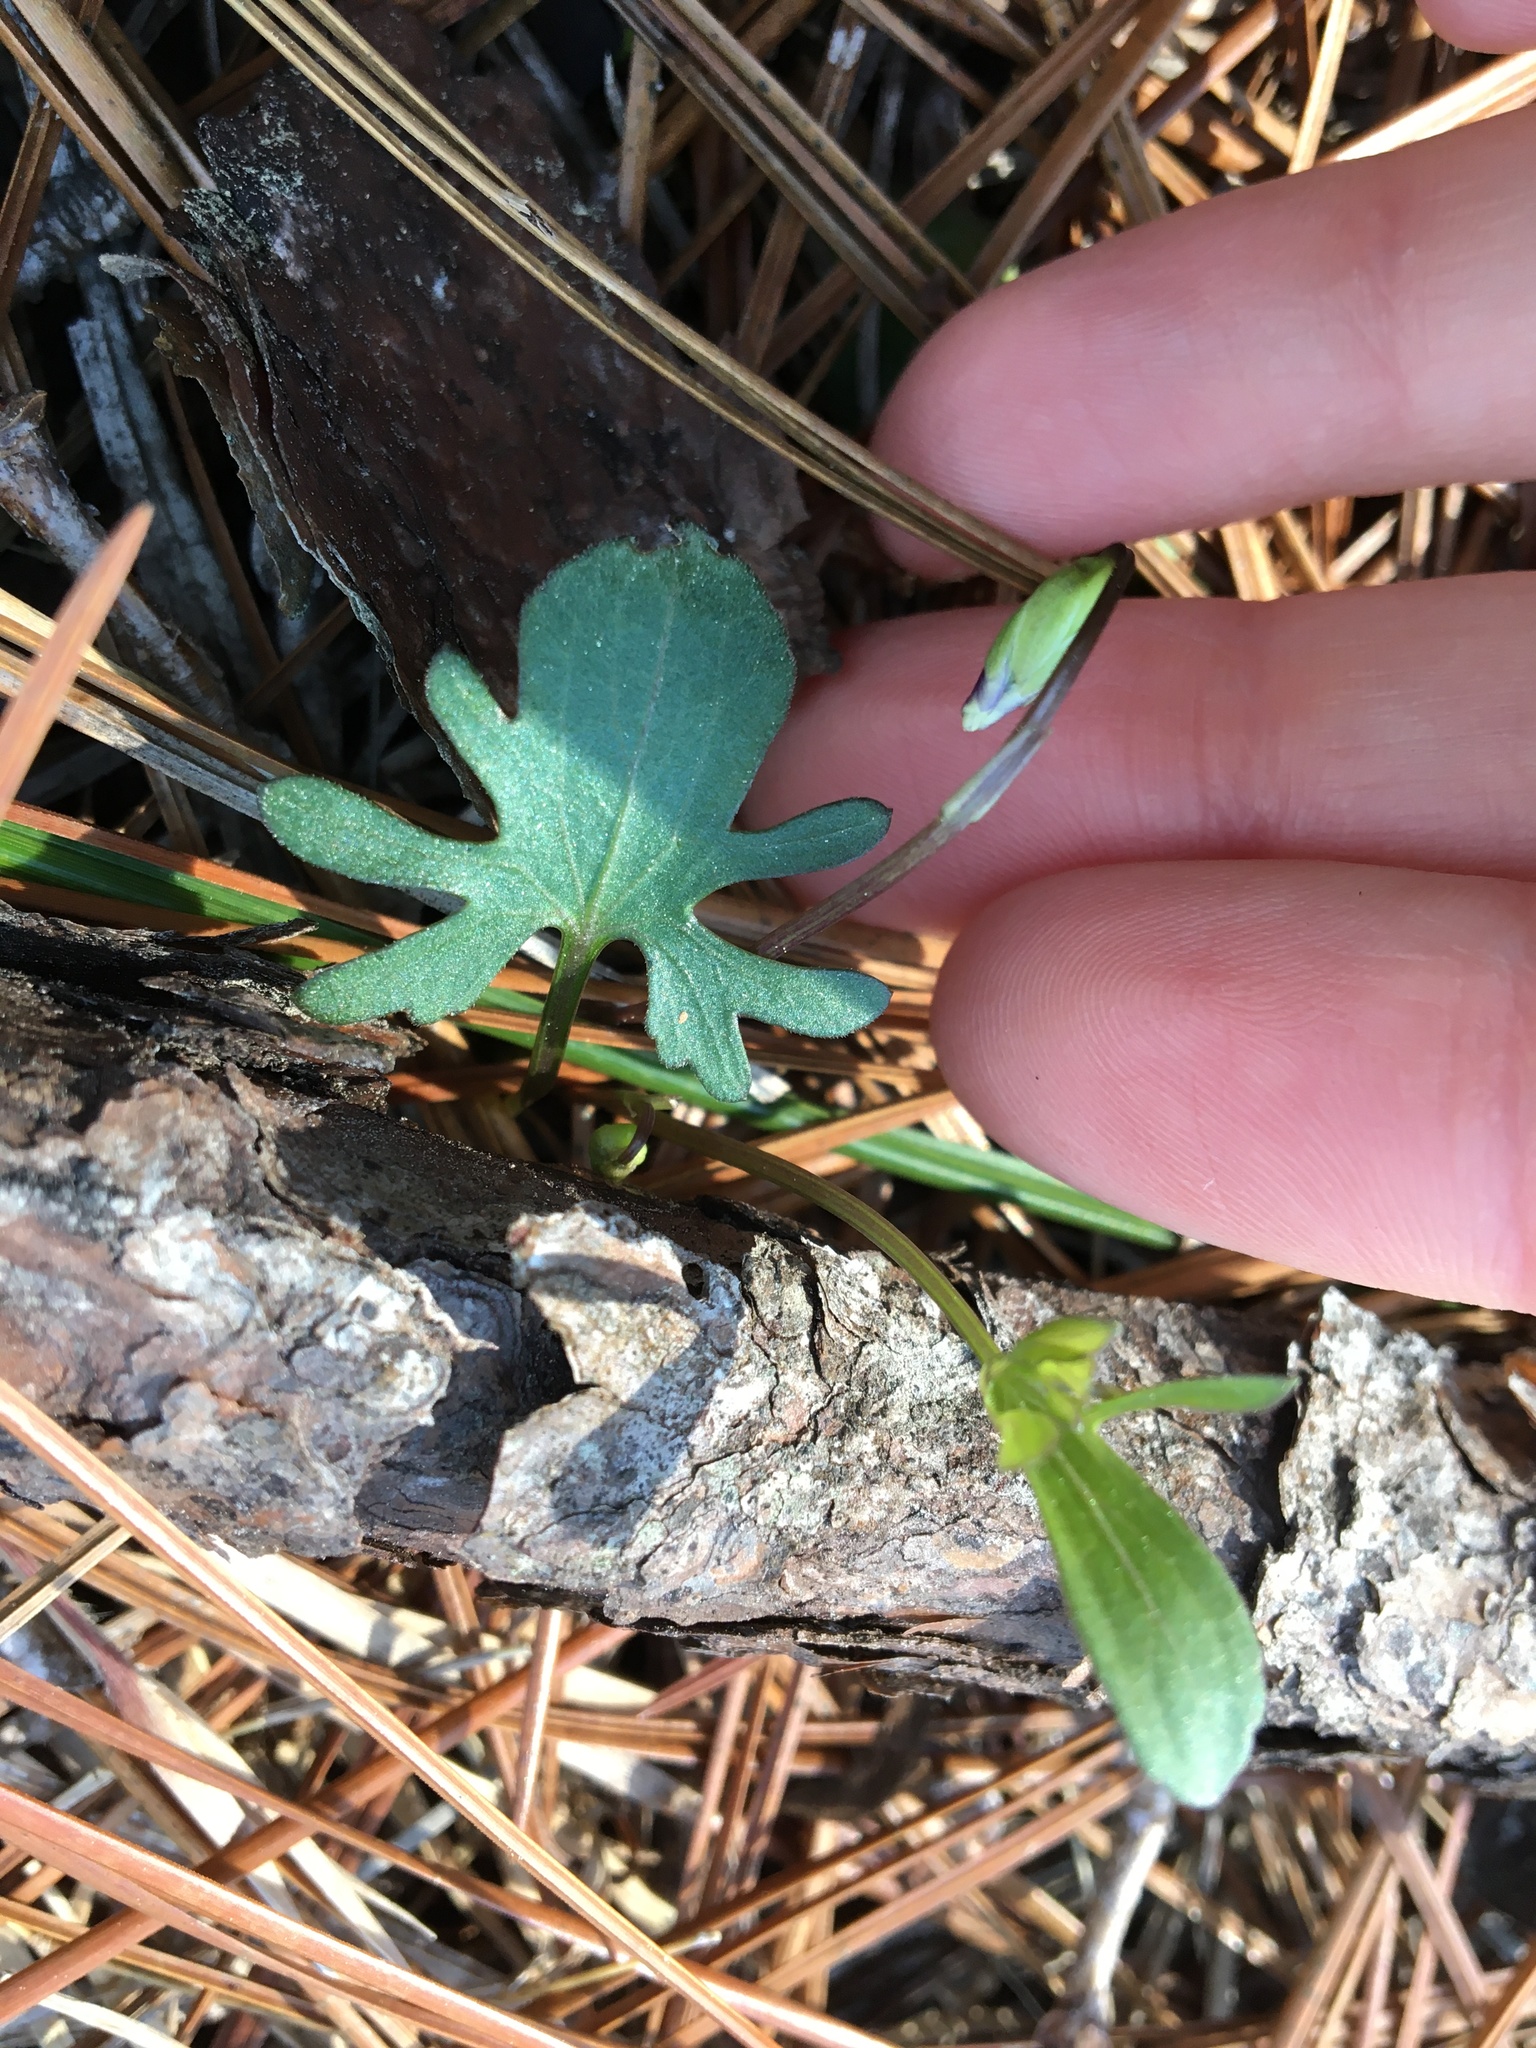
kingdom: Plantae
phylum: Tracheophyta
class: Magnoliopsida
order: Malpighiales
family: Violaceae
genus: Viola
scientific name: Viola septemloba
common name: Southern coast violet
